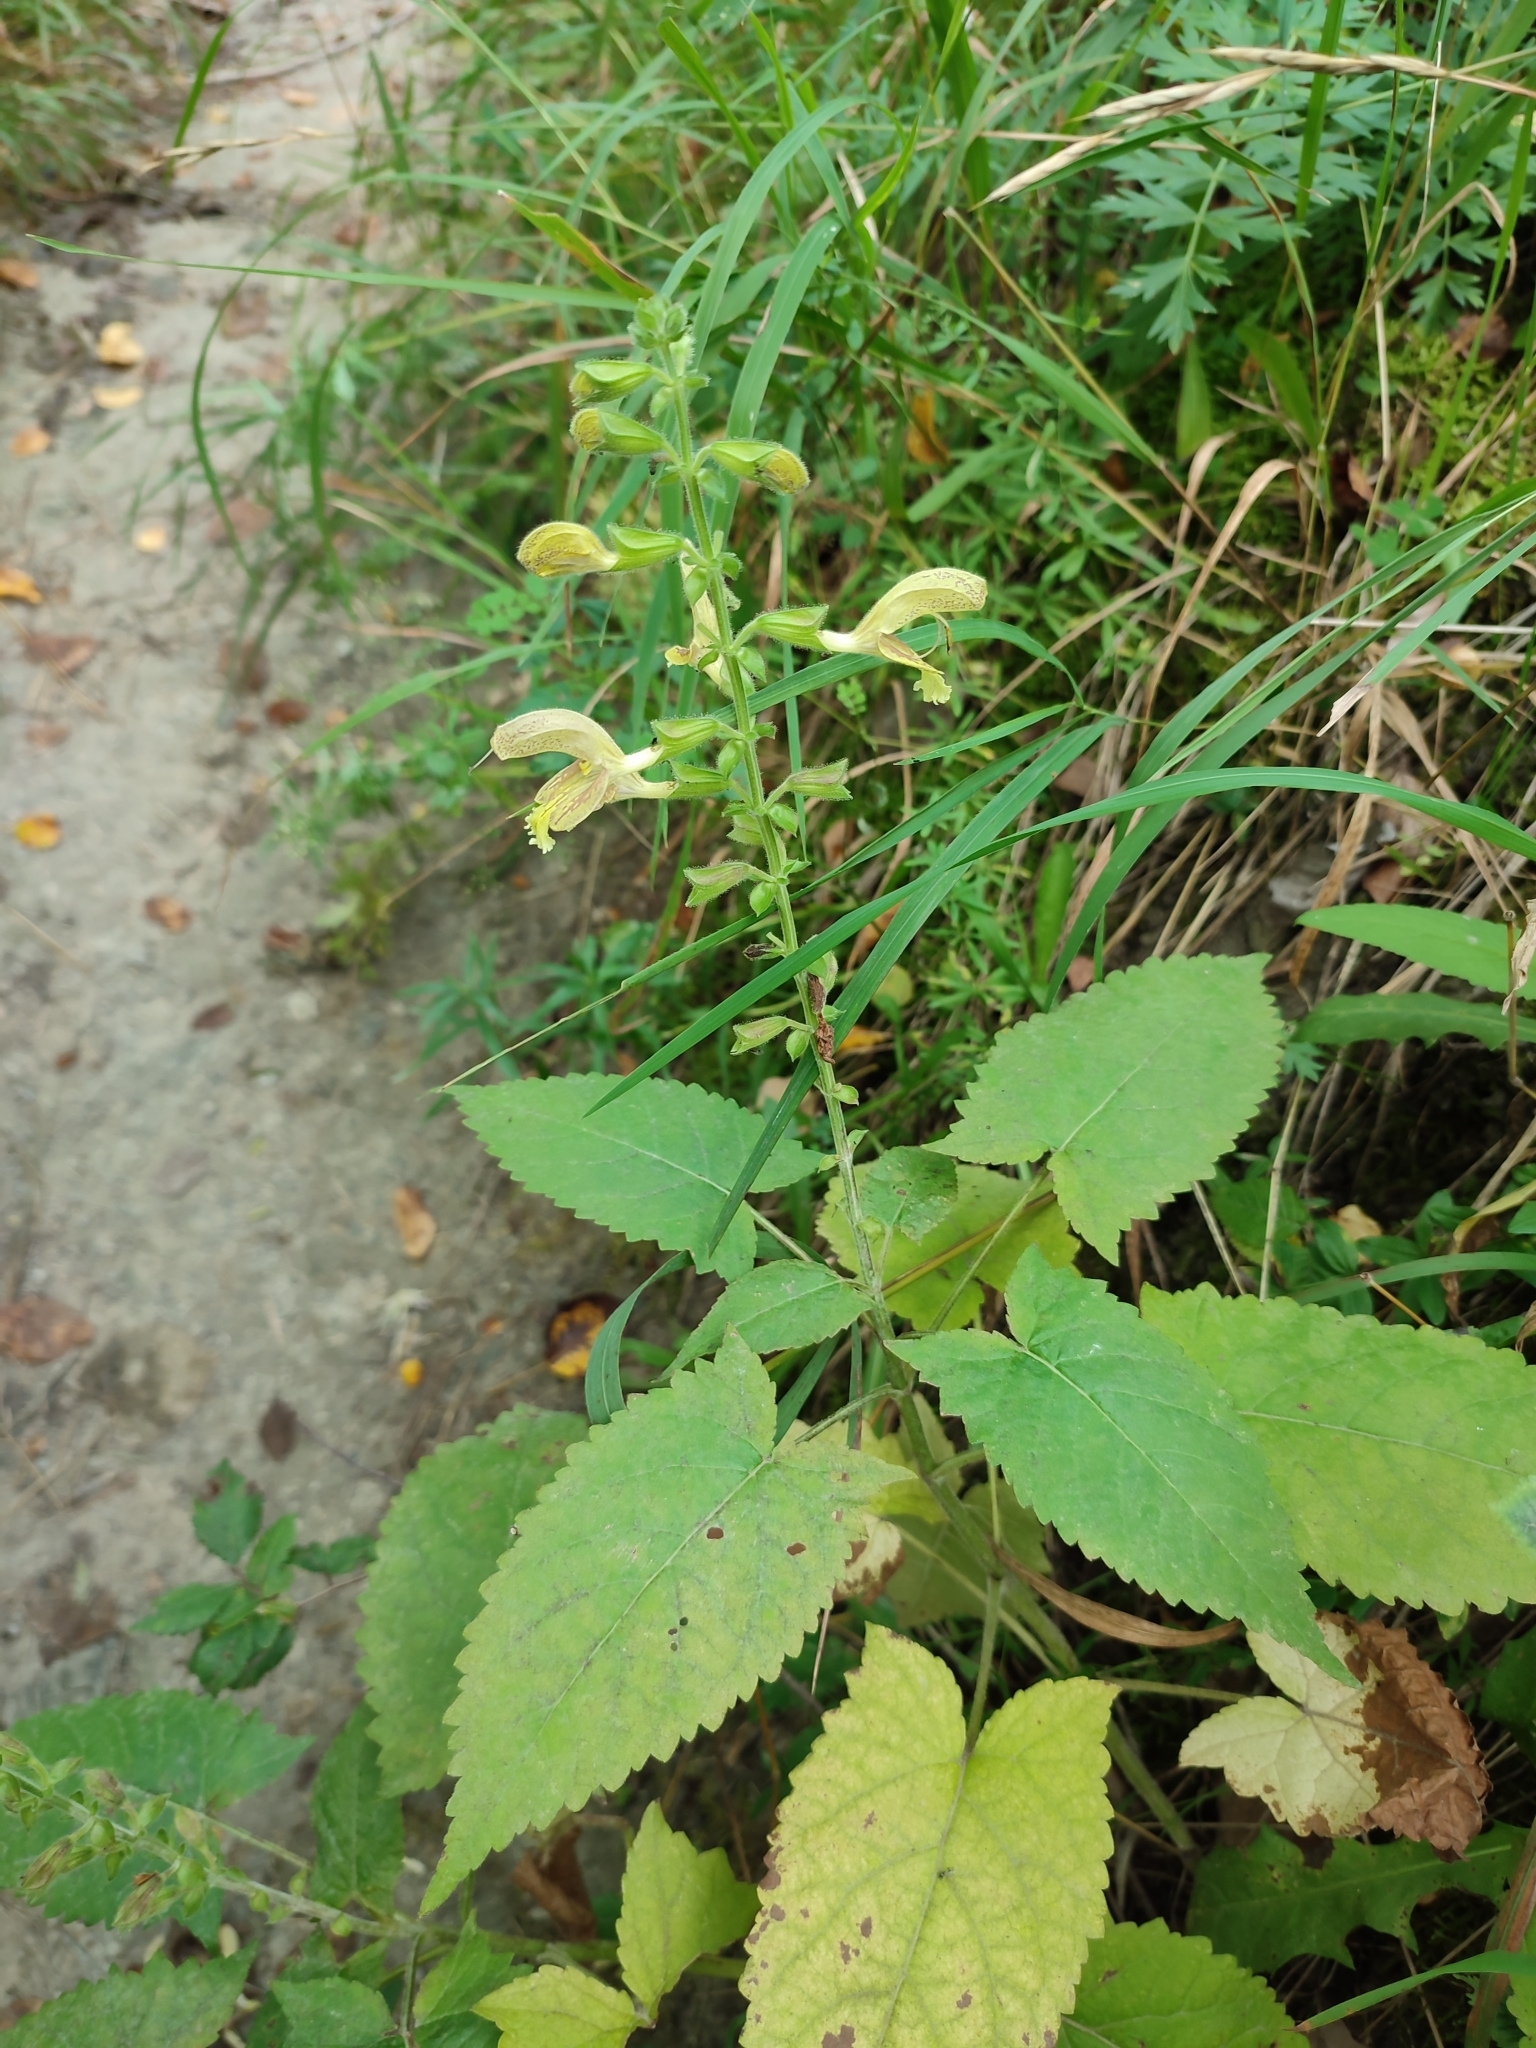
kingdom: Plantae
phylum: Tracheophyta
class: Magnoliopsida
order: Lamiales
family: Lamiaceae
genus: Salvia
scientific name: Salvia glutinosa
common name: Sticky clary
